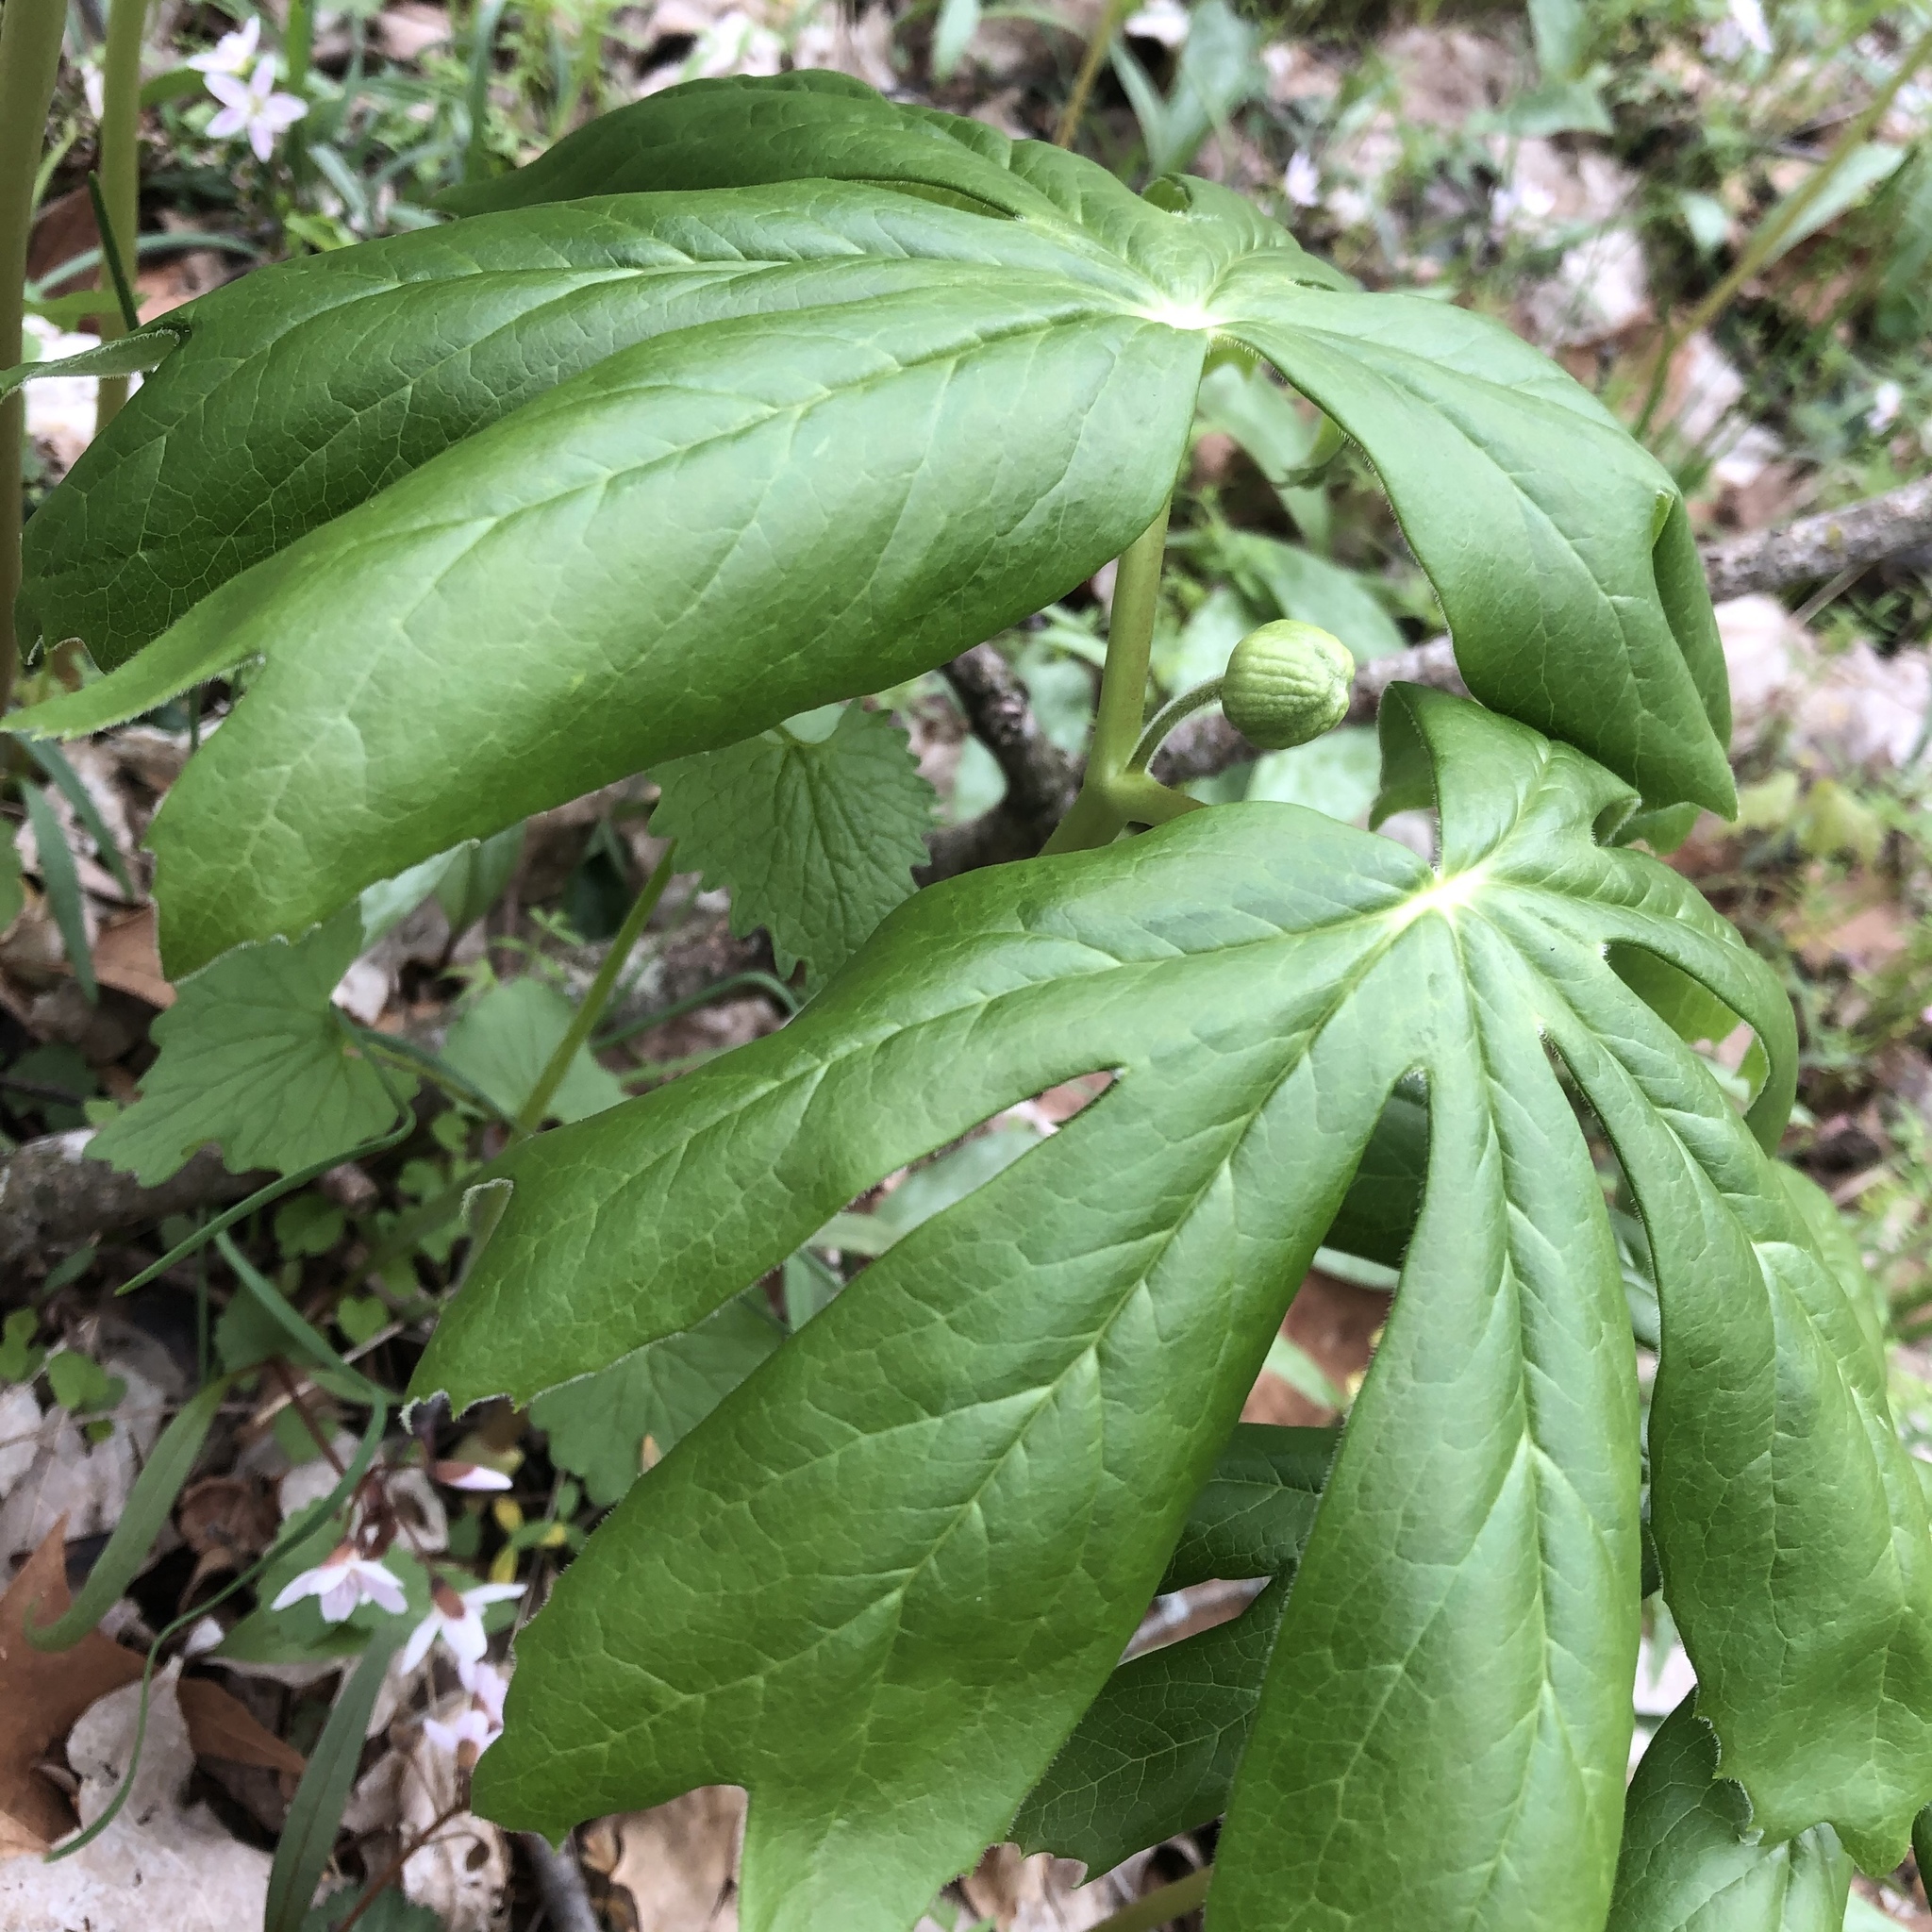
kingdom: Plantae
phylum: Tracheophyta
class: Magnoliopsida
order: Ranunculales
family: Berberidaceae
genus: Podophyllum
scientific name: Podophyllum peltatum
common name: Wild mandrake
